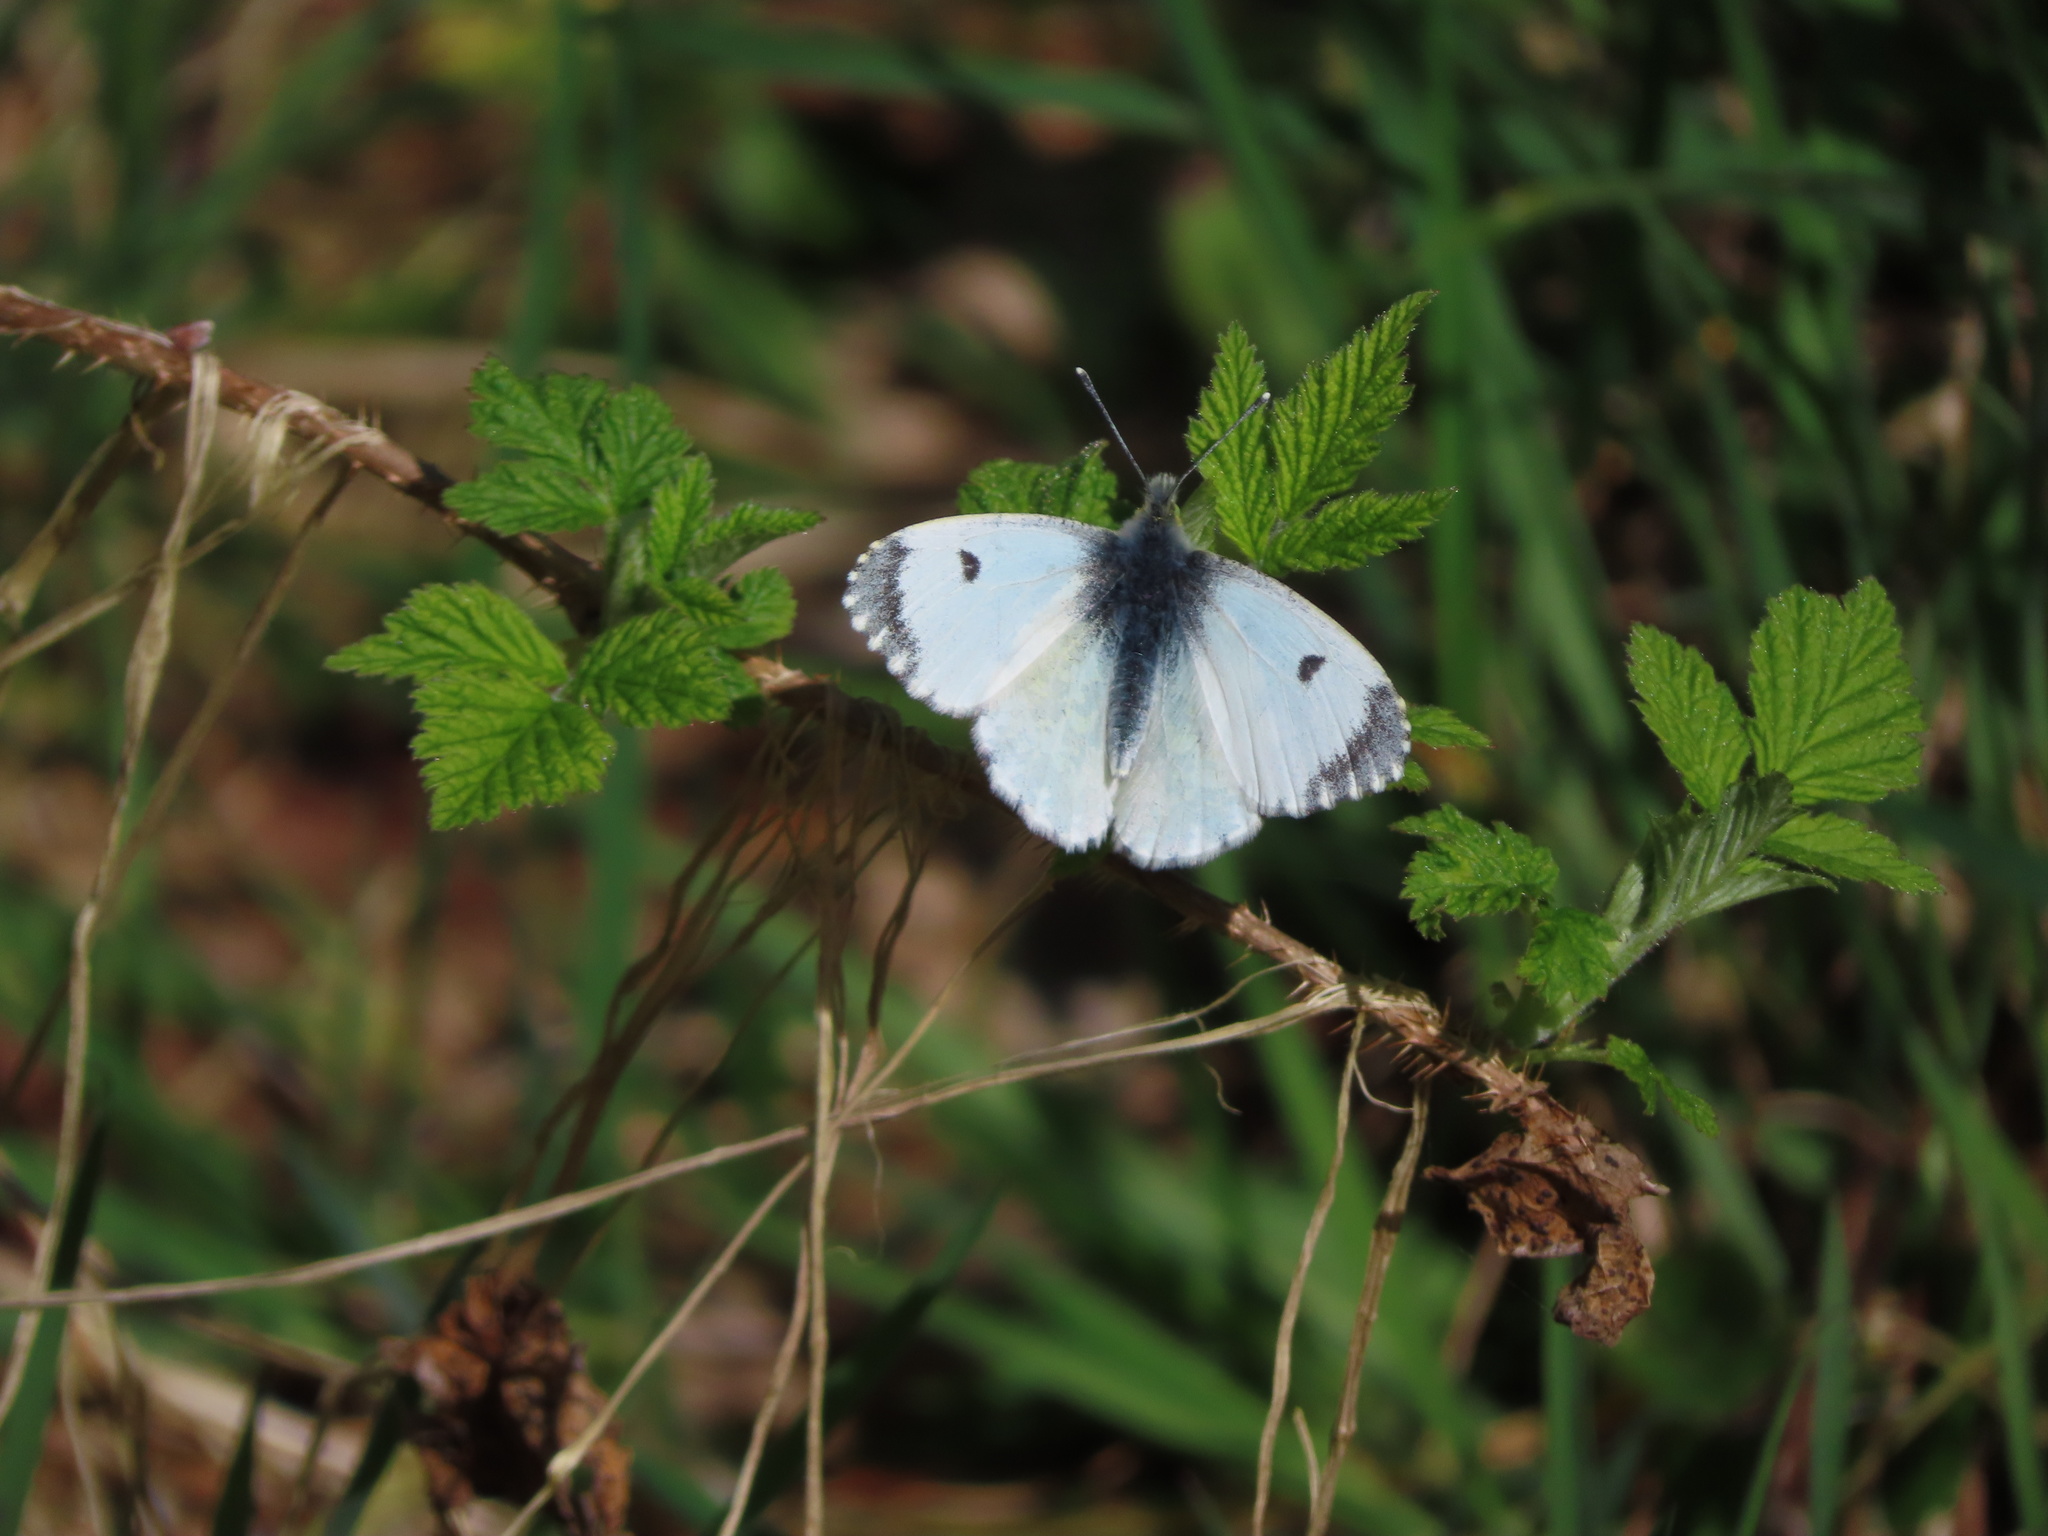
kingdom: Animalia
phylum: Arthropoda
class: Insecta
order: Lepidoptera
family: Pieridae
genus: Anthocharis
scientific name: Anthocharis cardamines
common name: Orange-tip
